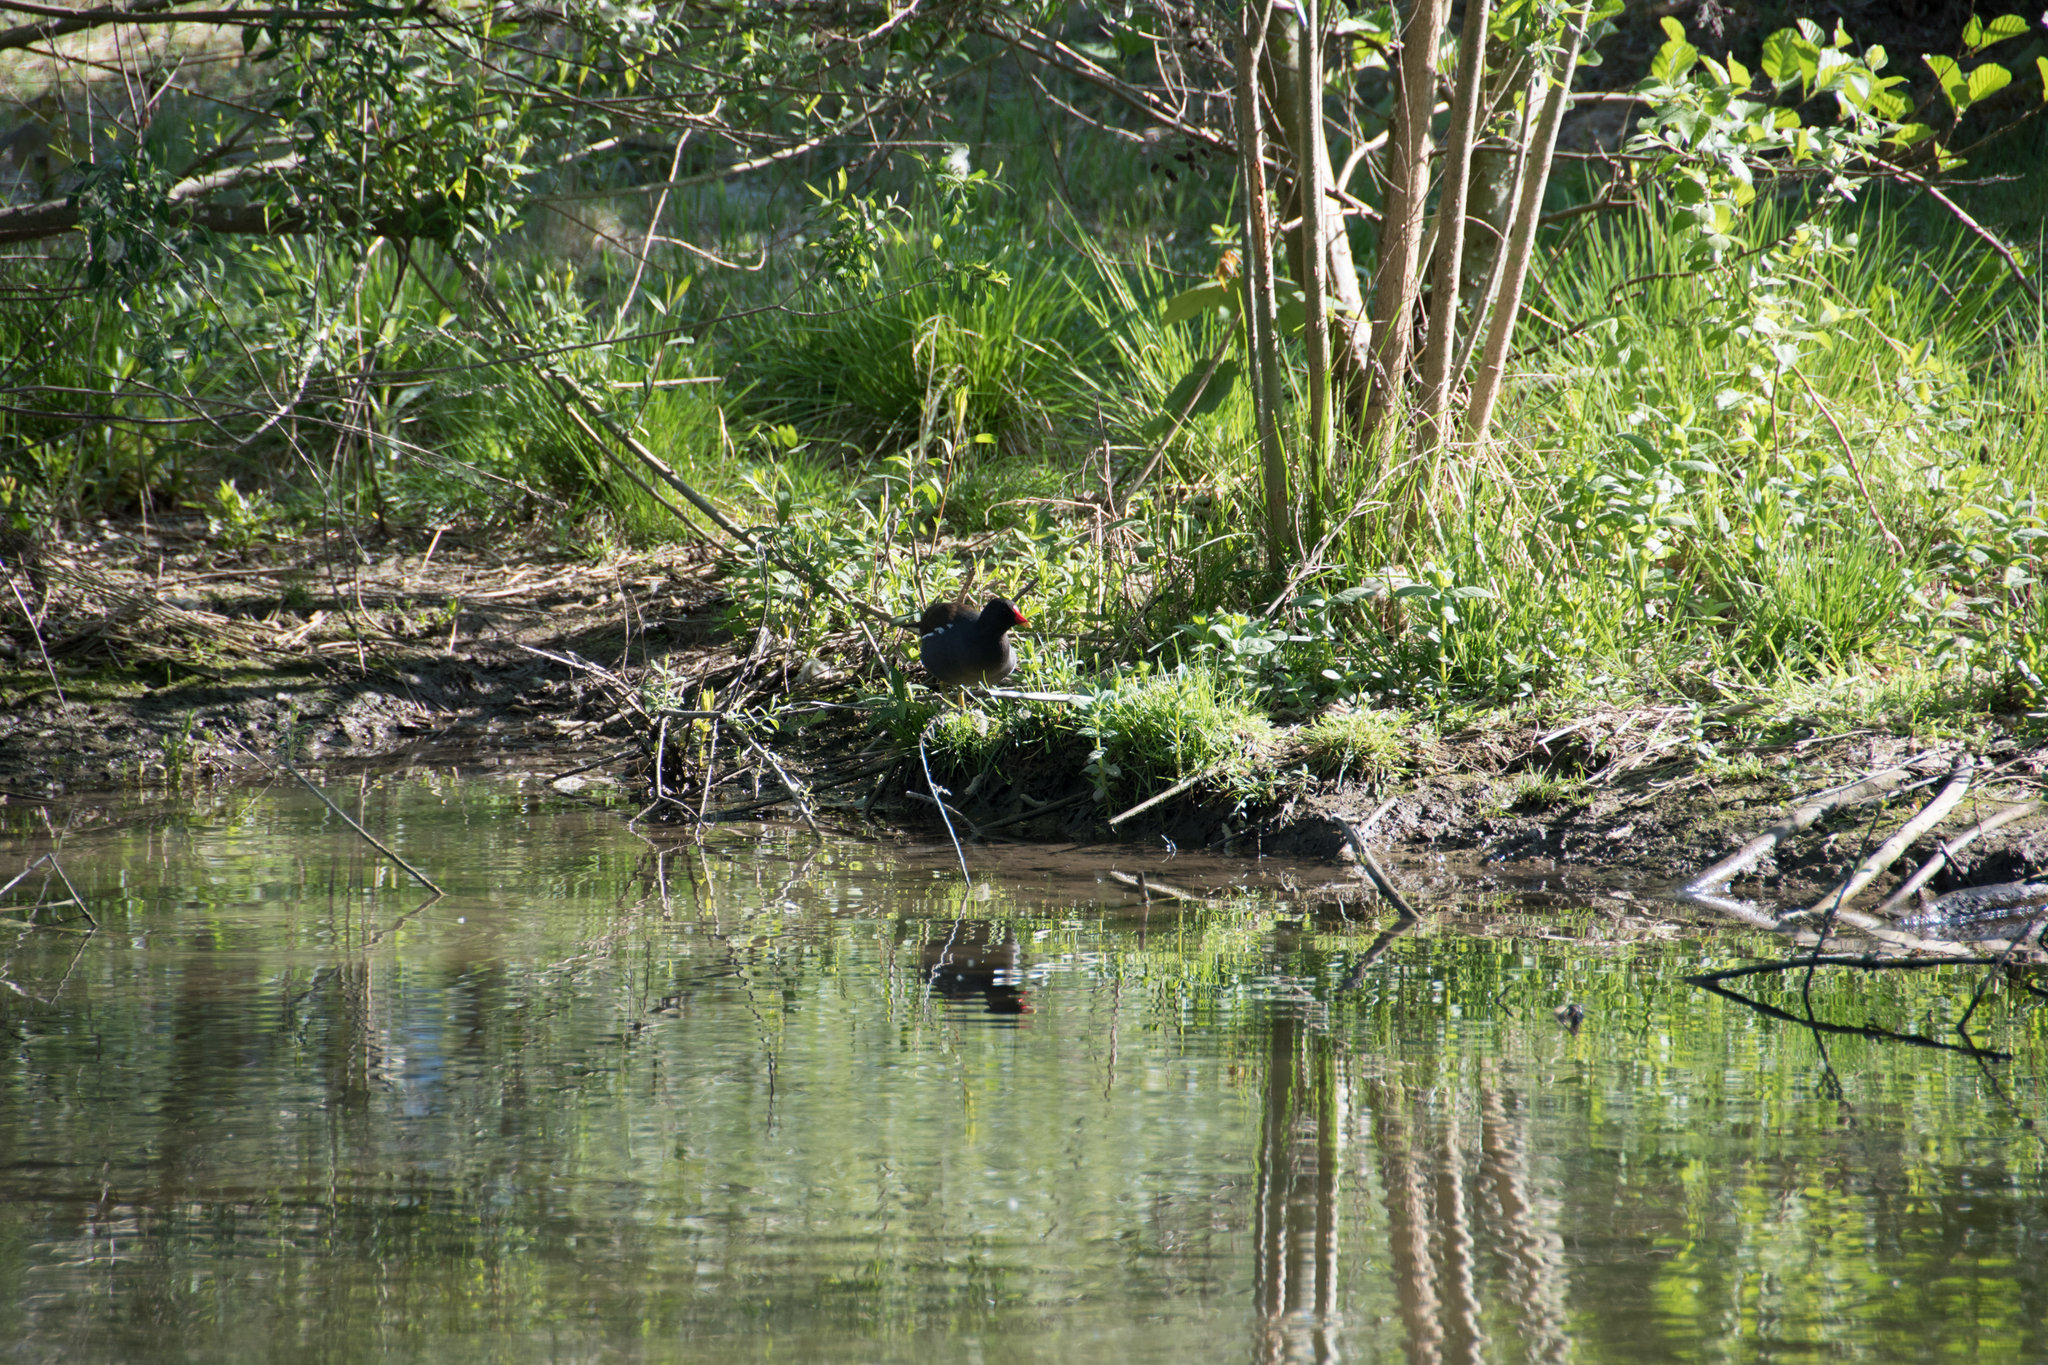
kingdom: Animalia
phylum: Chordata
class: Aves
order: Gruiformes
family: Rallidae
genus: Gallinula
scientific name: Gallinula chloropus
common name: Common moorhen
